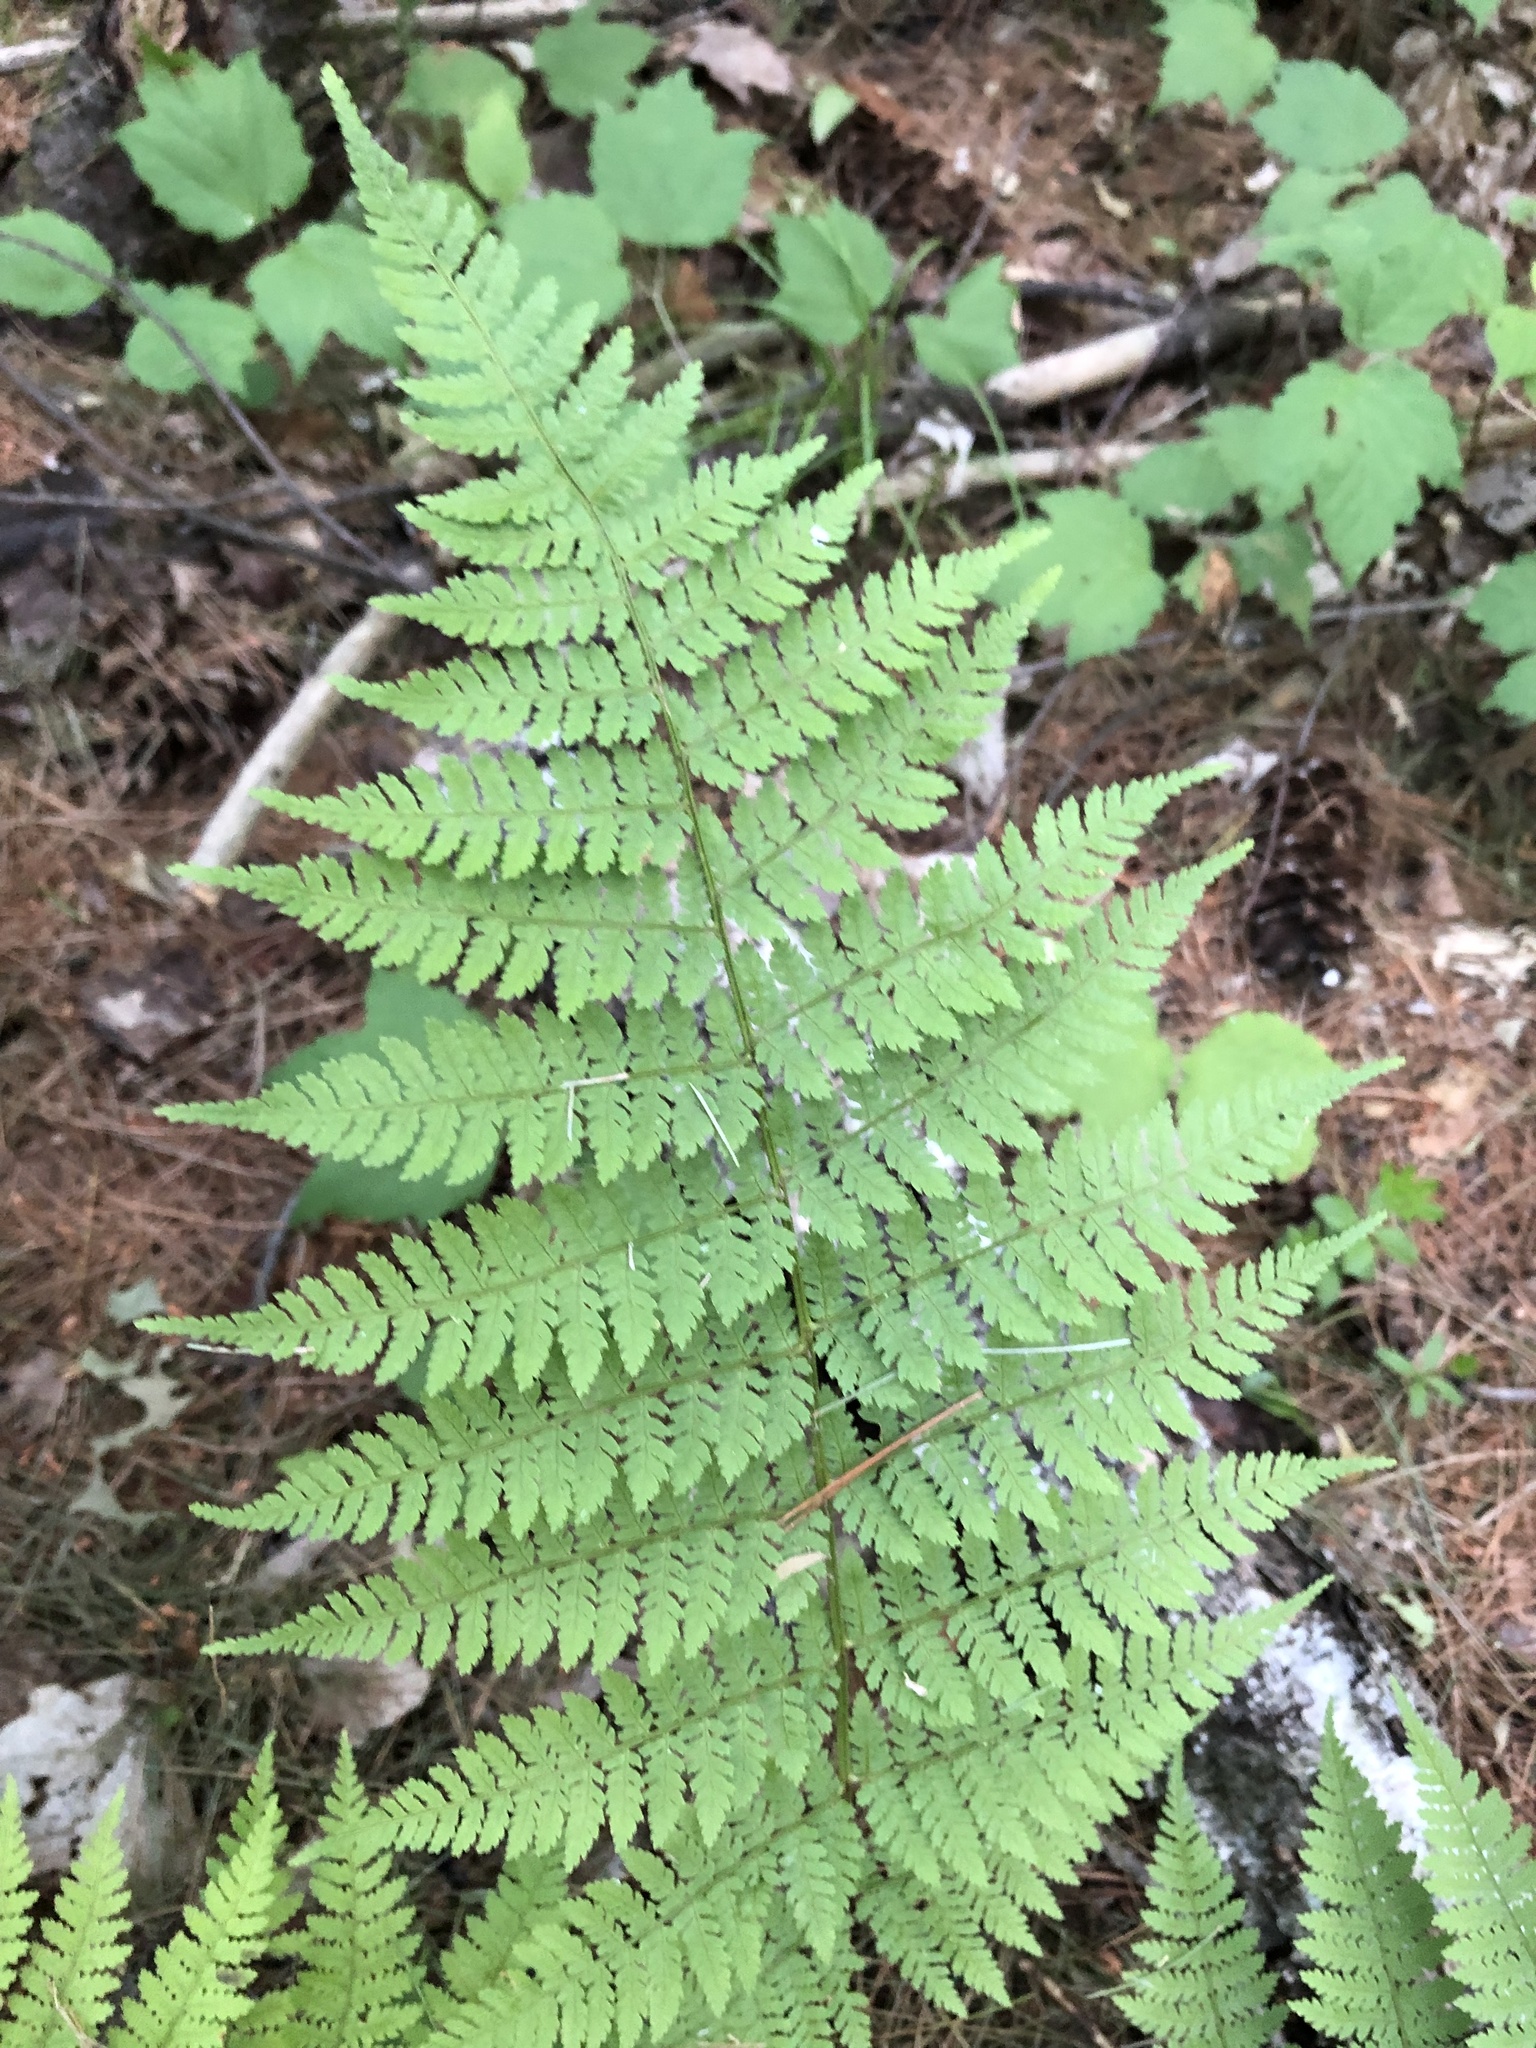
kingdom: Plantae
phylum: Tracheophyta
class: Polypodiopsida
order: Polypodiales
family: Dryopteridaceae
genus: Dryopteris
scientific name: Dryopteris intermedia
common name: Evergreen wood fern
